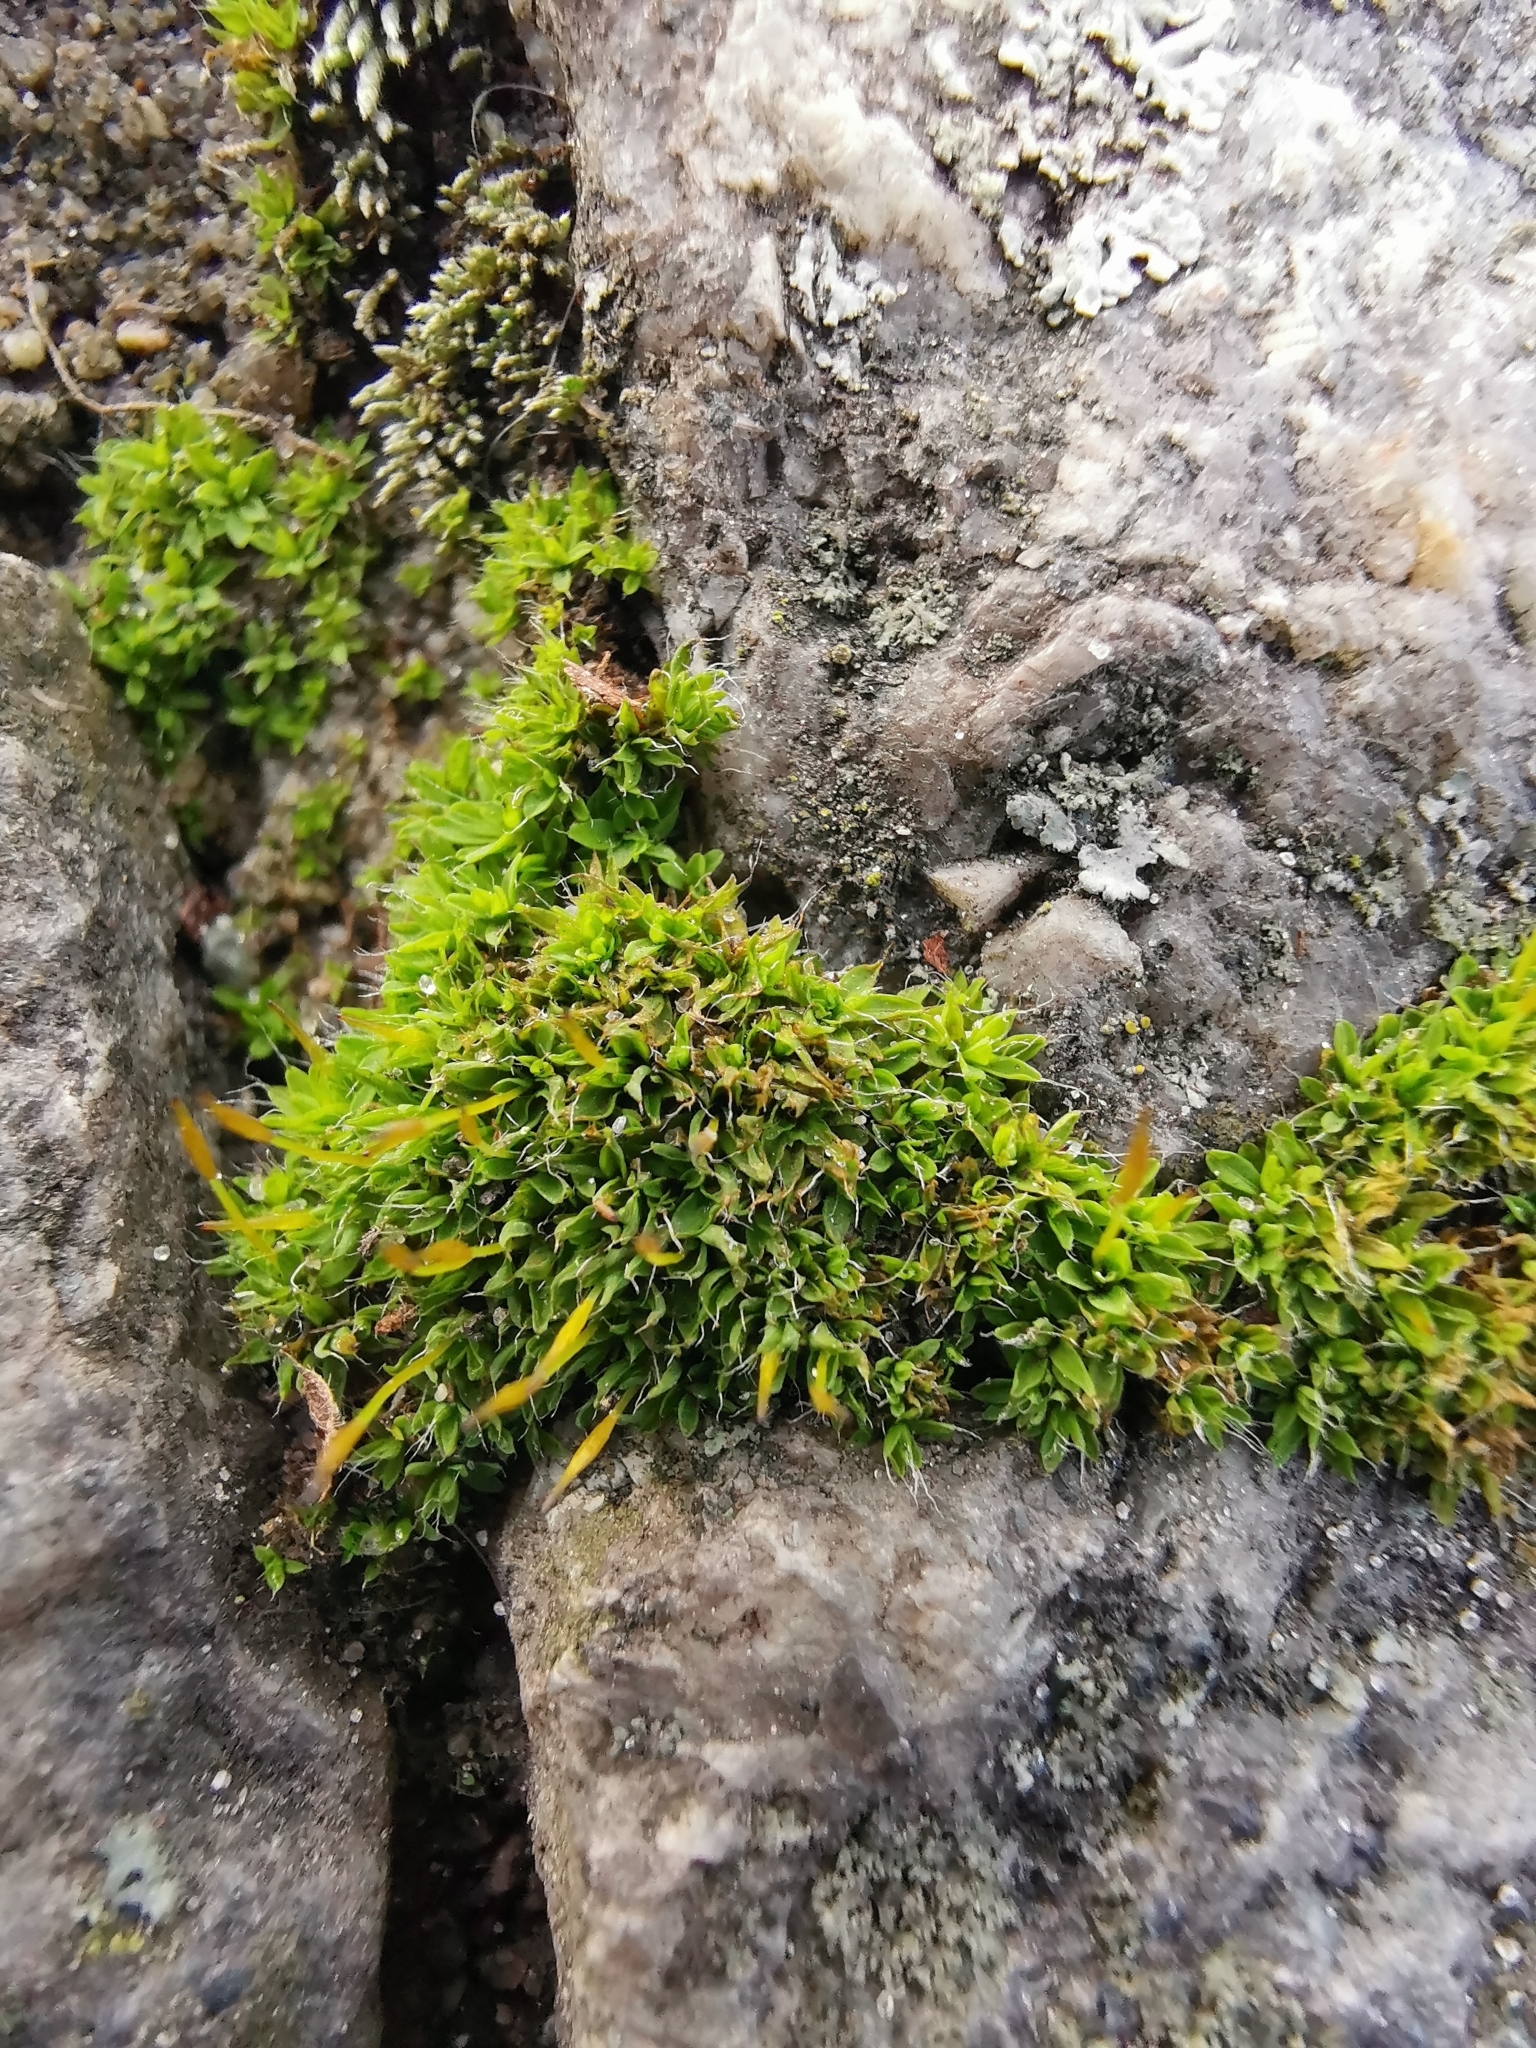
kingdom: Plantae
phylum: Bryophyta
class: Bryopsida
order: Pottiales
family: Pottiaceae
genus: Tortula
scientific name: Tortula muralis
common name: Wall screw-moss
